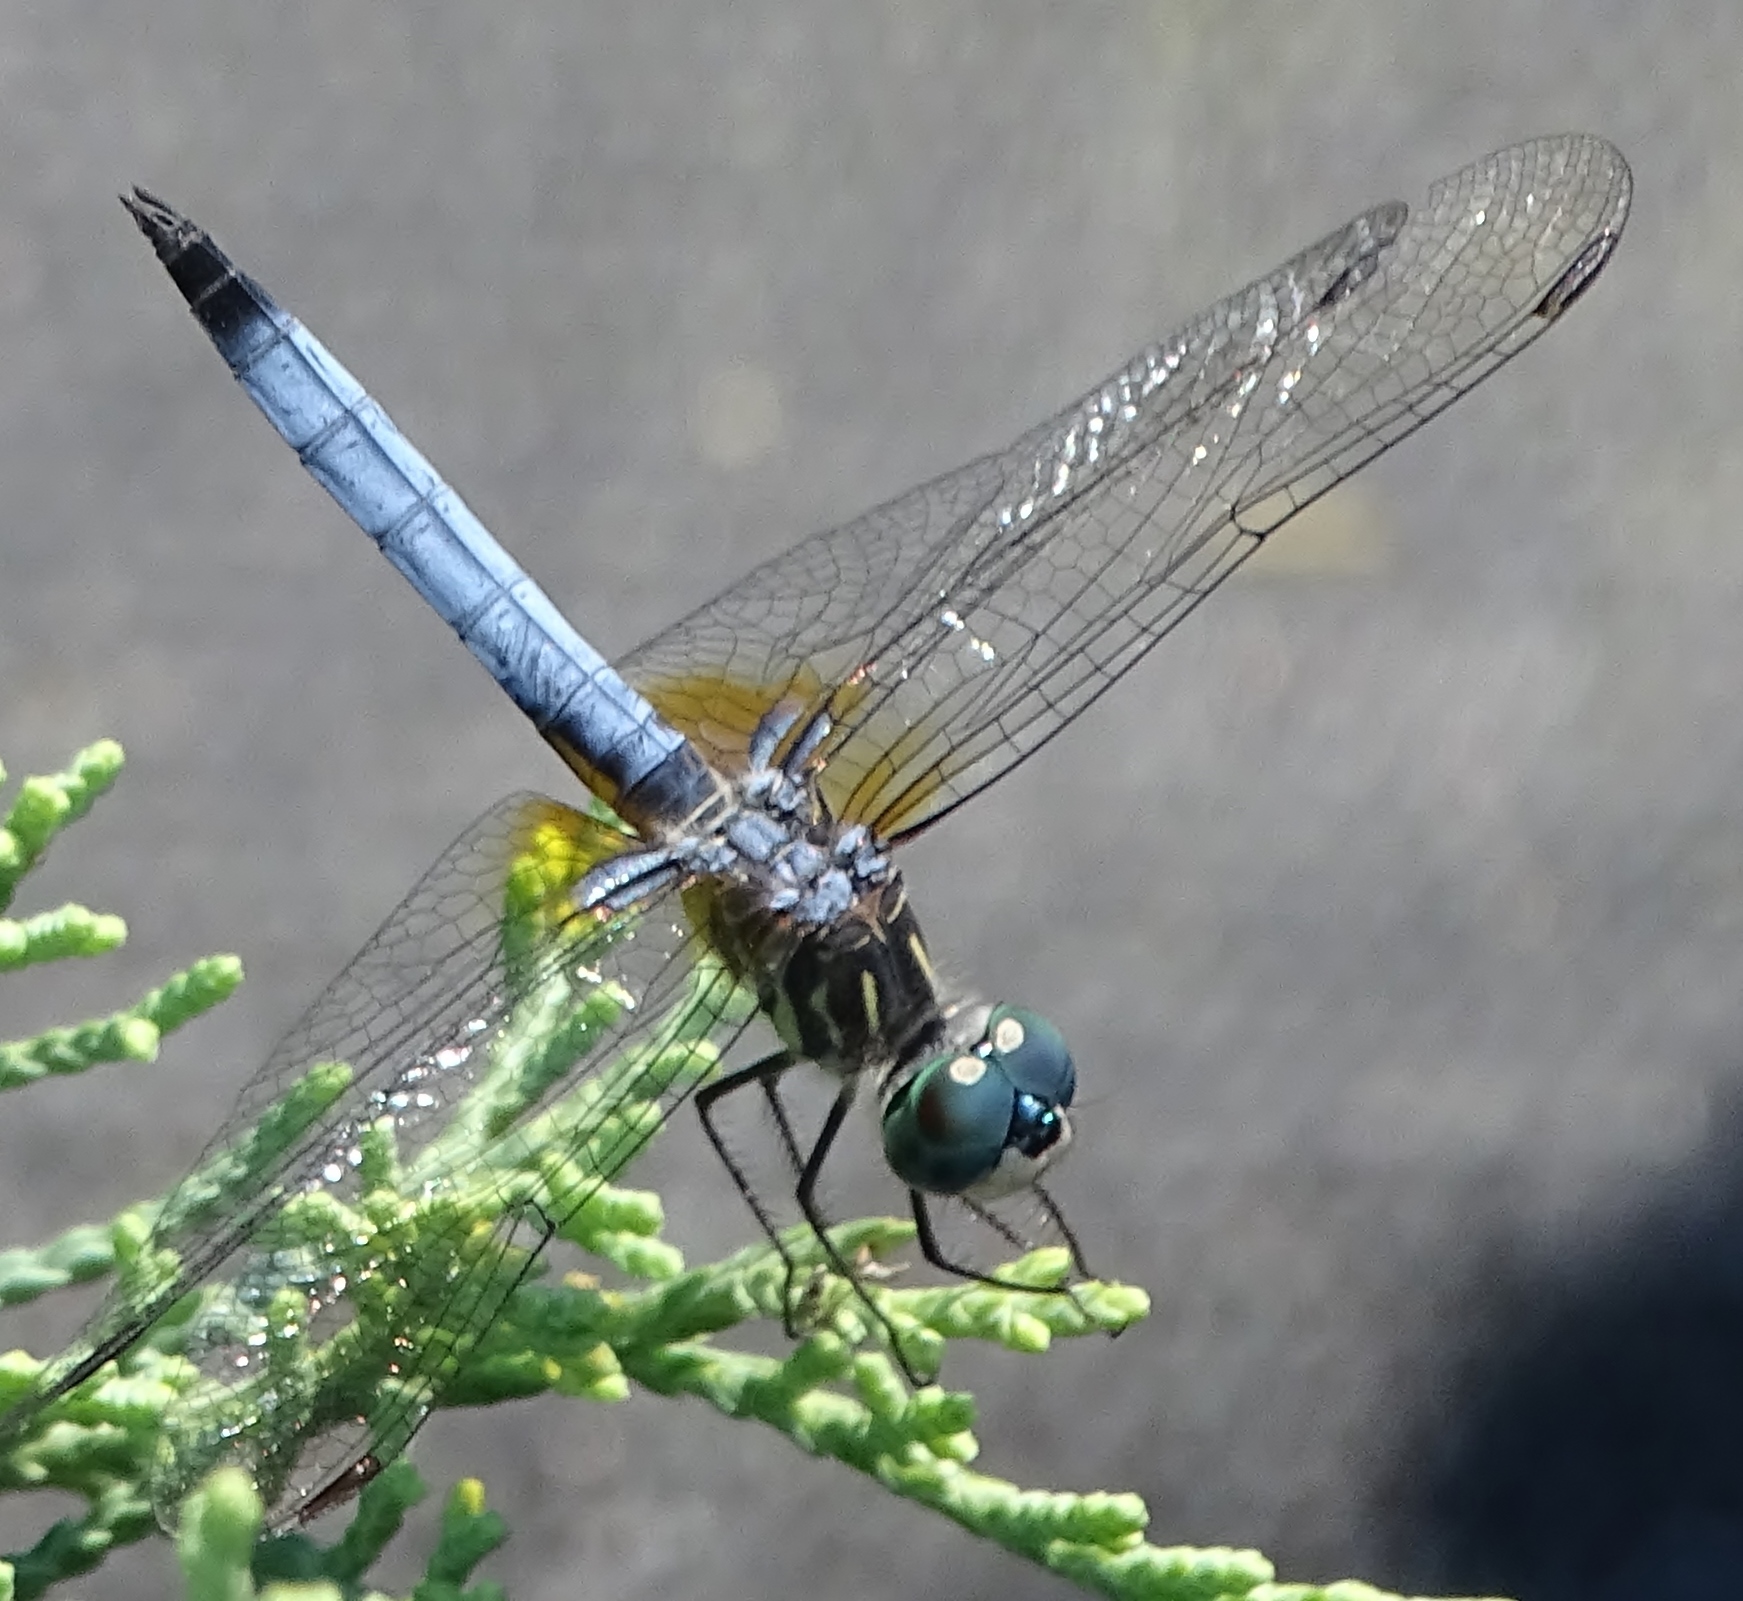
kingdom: Animalia
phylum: Arthropoda
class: Insecta
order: Odonata
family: Libellulidae
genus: Pachydiplax
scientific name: Pachydiplax longipennis
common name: Blue dasher
